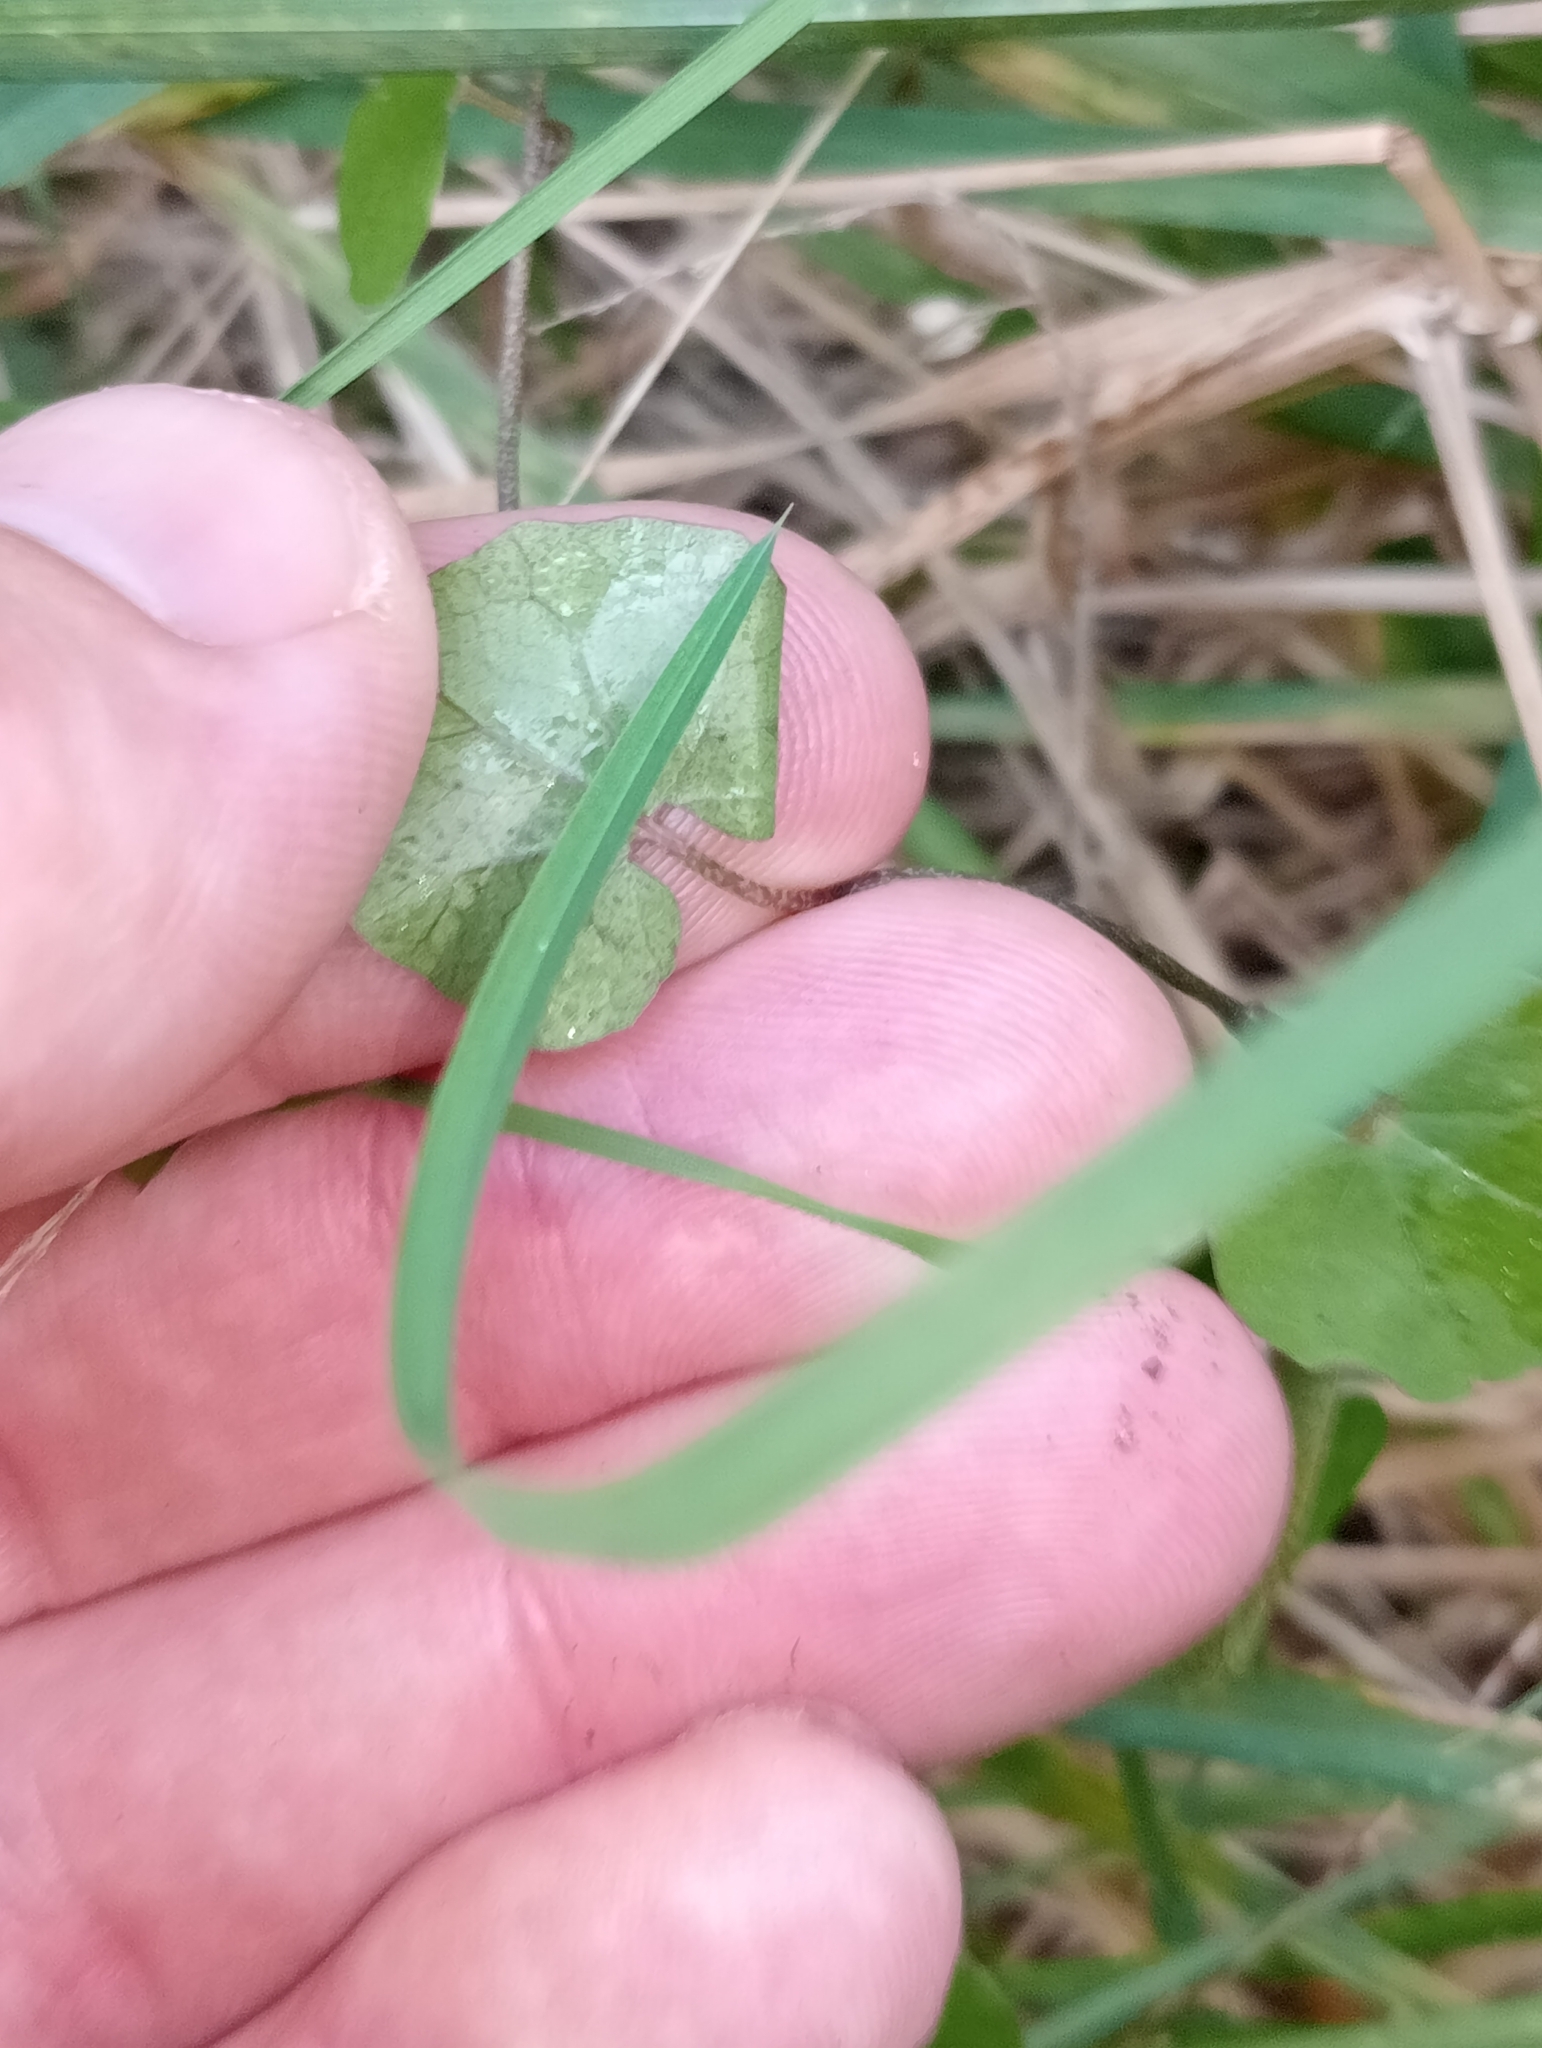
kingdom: Plantae
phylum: Tracheophyta
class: Magnoliopsida
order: Solanales
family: Convolvulaceae
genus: Calystegia
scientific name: Calystegia tuguriorum
